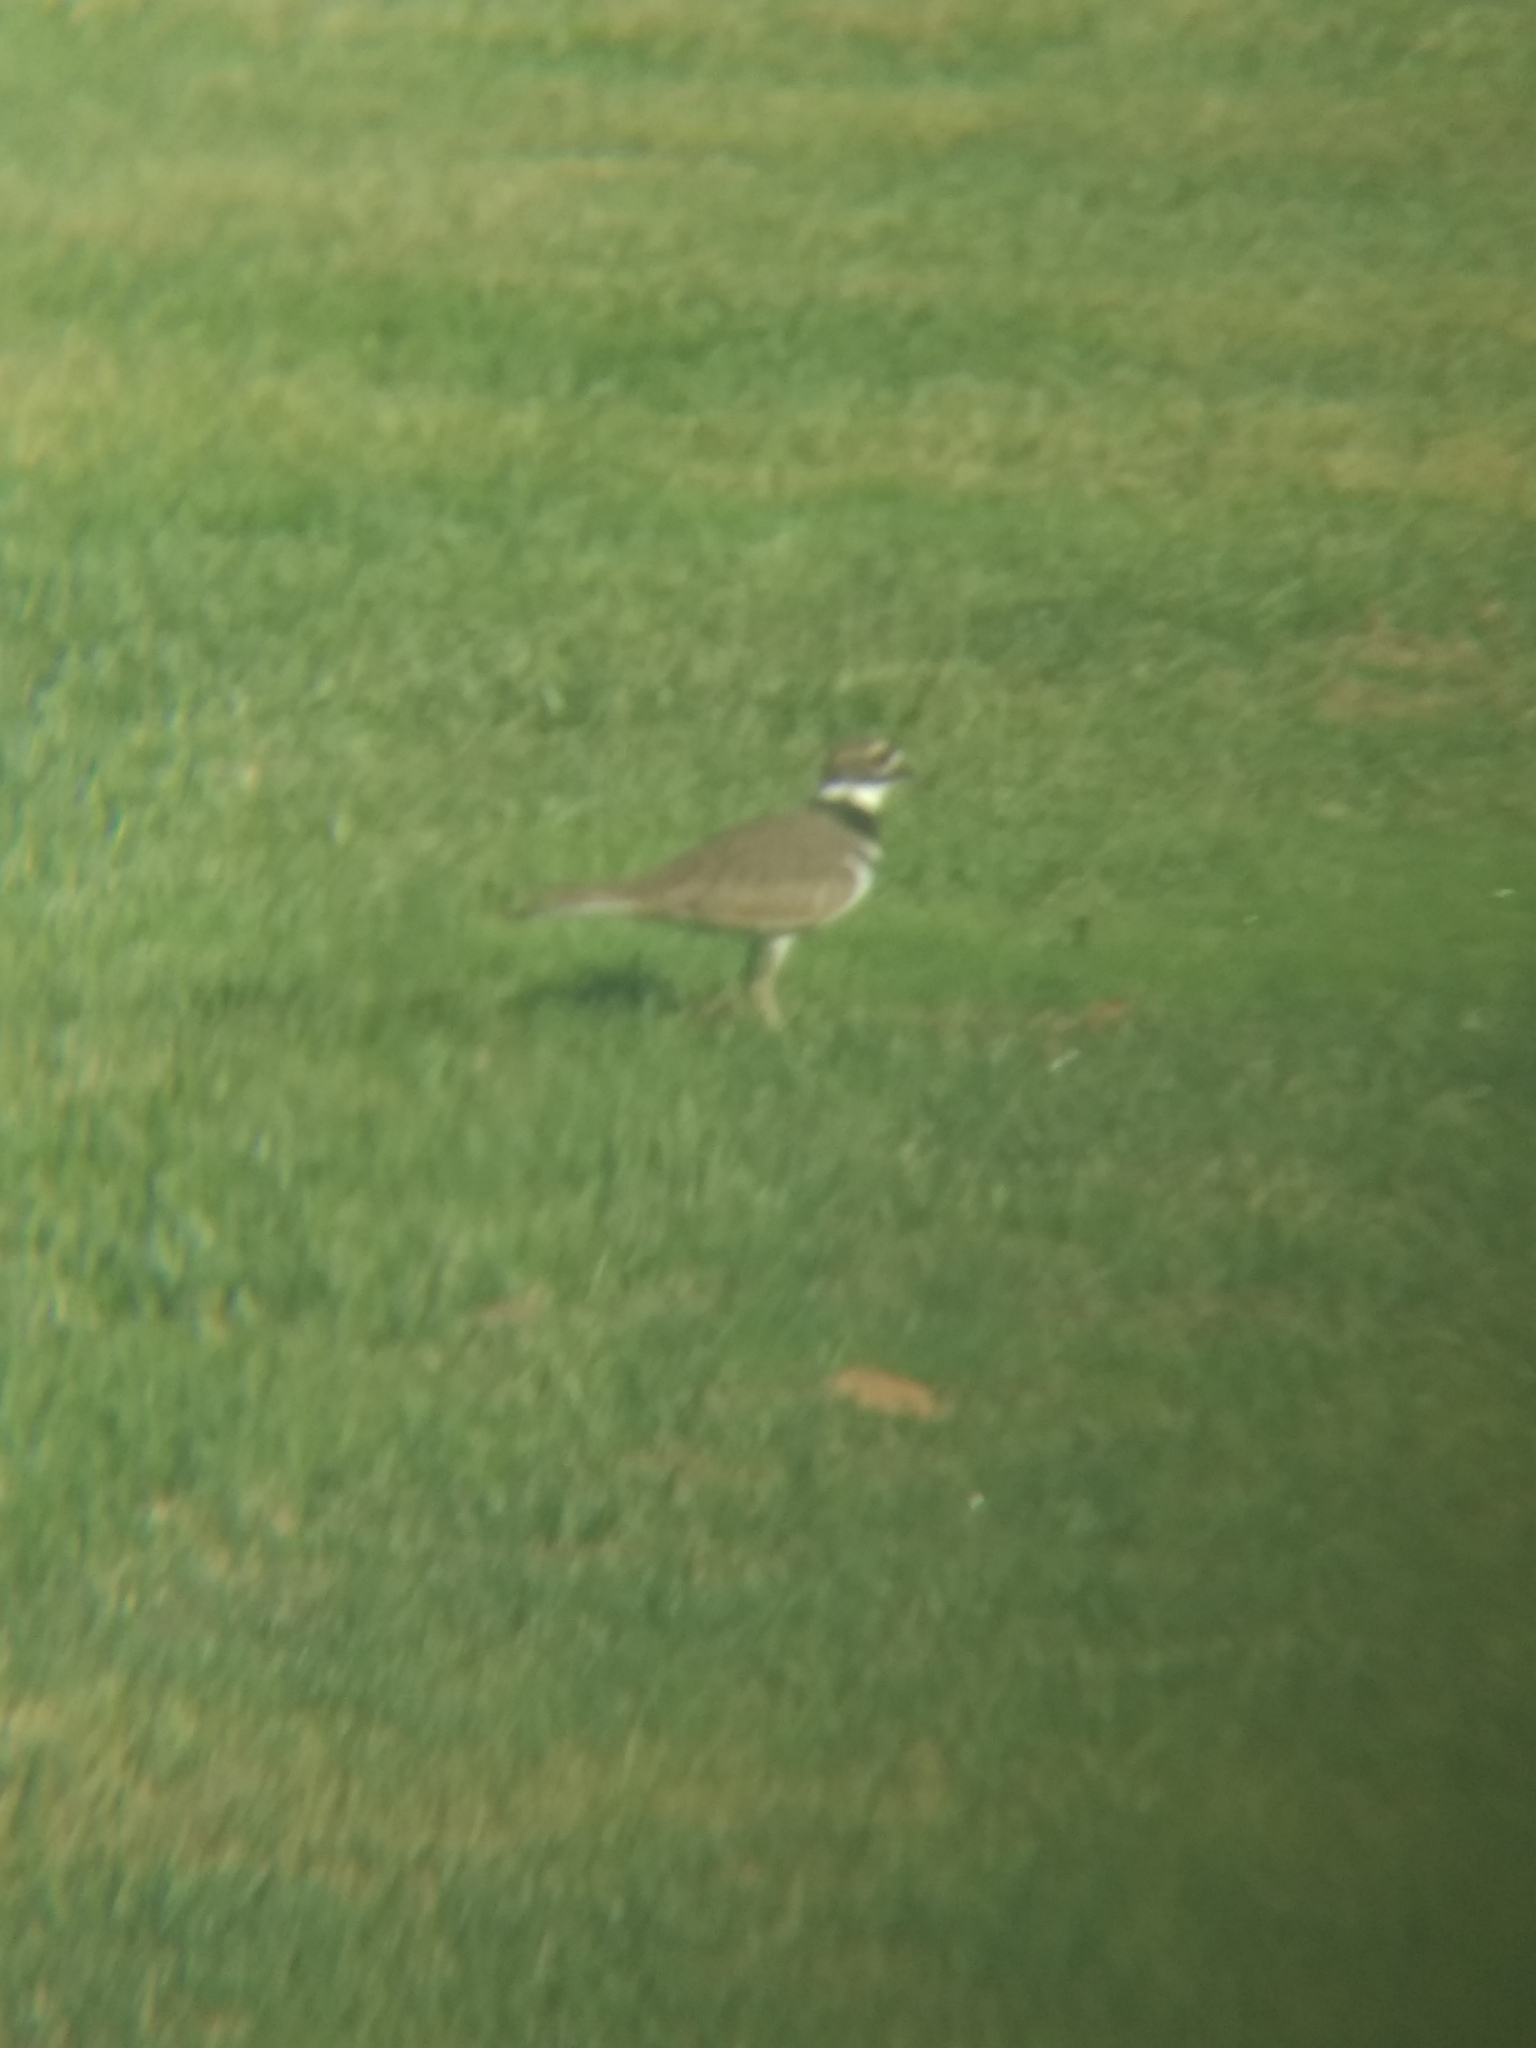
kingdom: Animalia
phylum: Chordata
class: Aves
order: Charadriiformes
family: Charadriidae
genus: Charadrius
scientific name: Charadrius vociferus
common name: Killdeer
